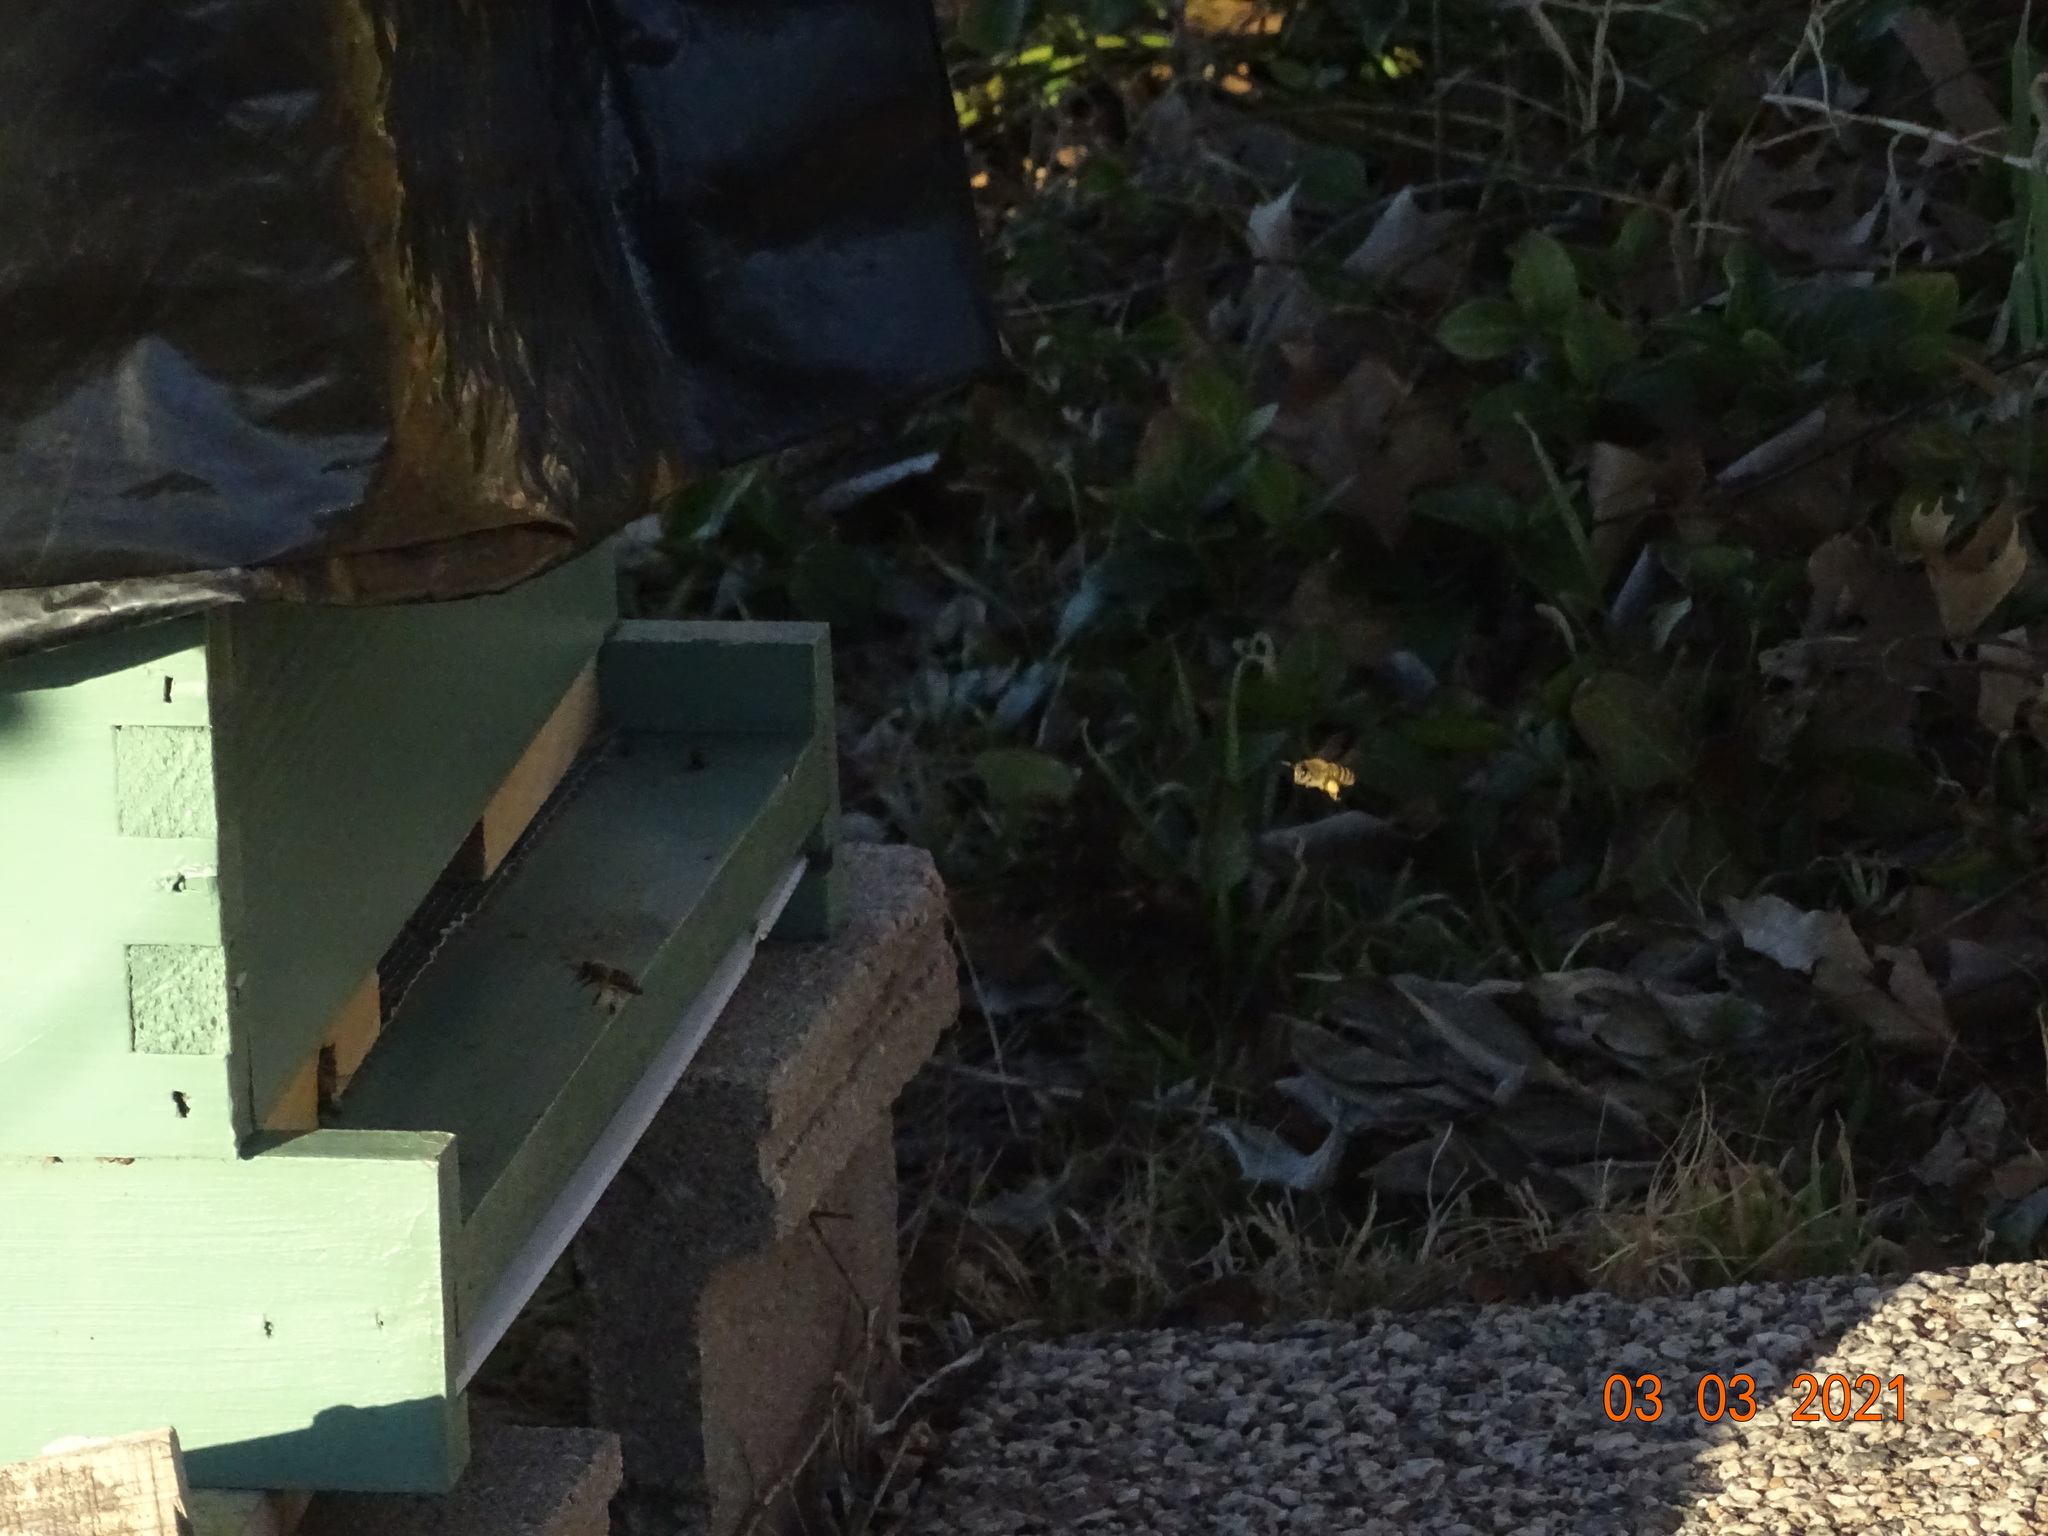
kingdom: Animalia
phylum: Arthropoda
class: Insecta
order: Hymenoptera
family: Apidae
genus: Apis
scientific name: Apis mellifera
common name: Honey bee
